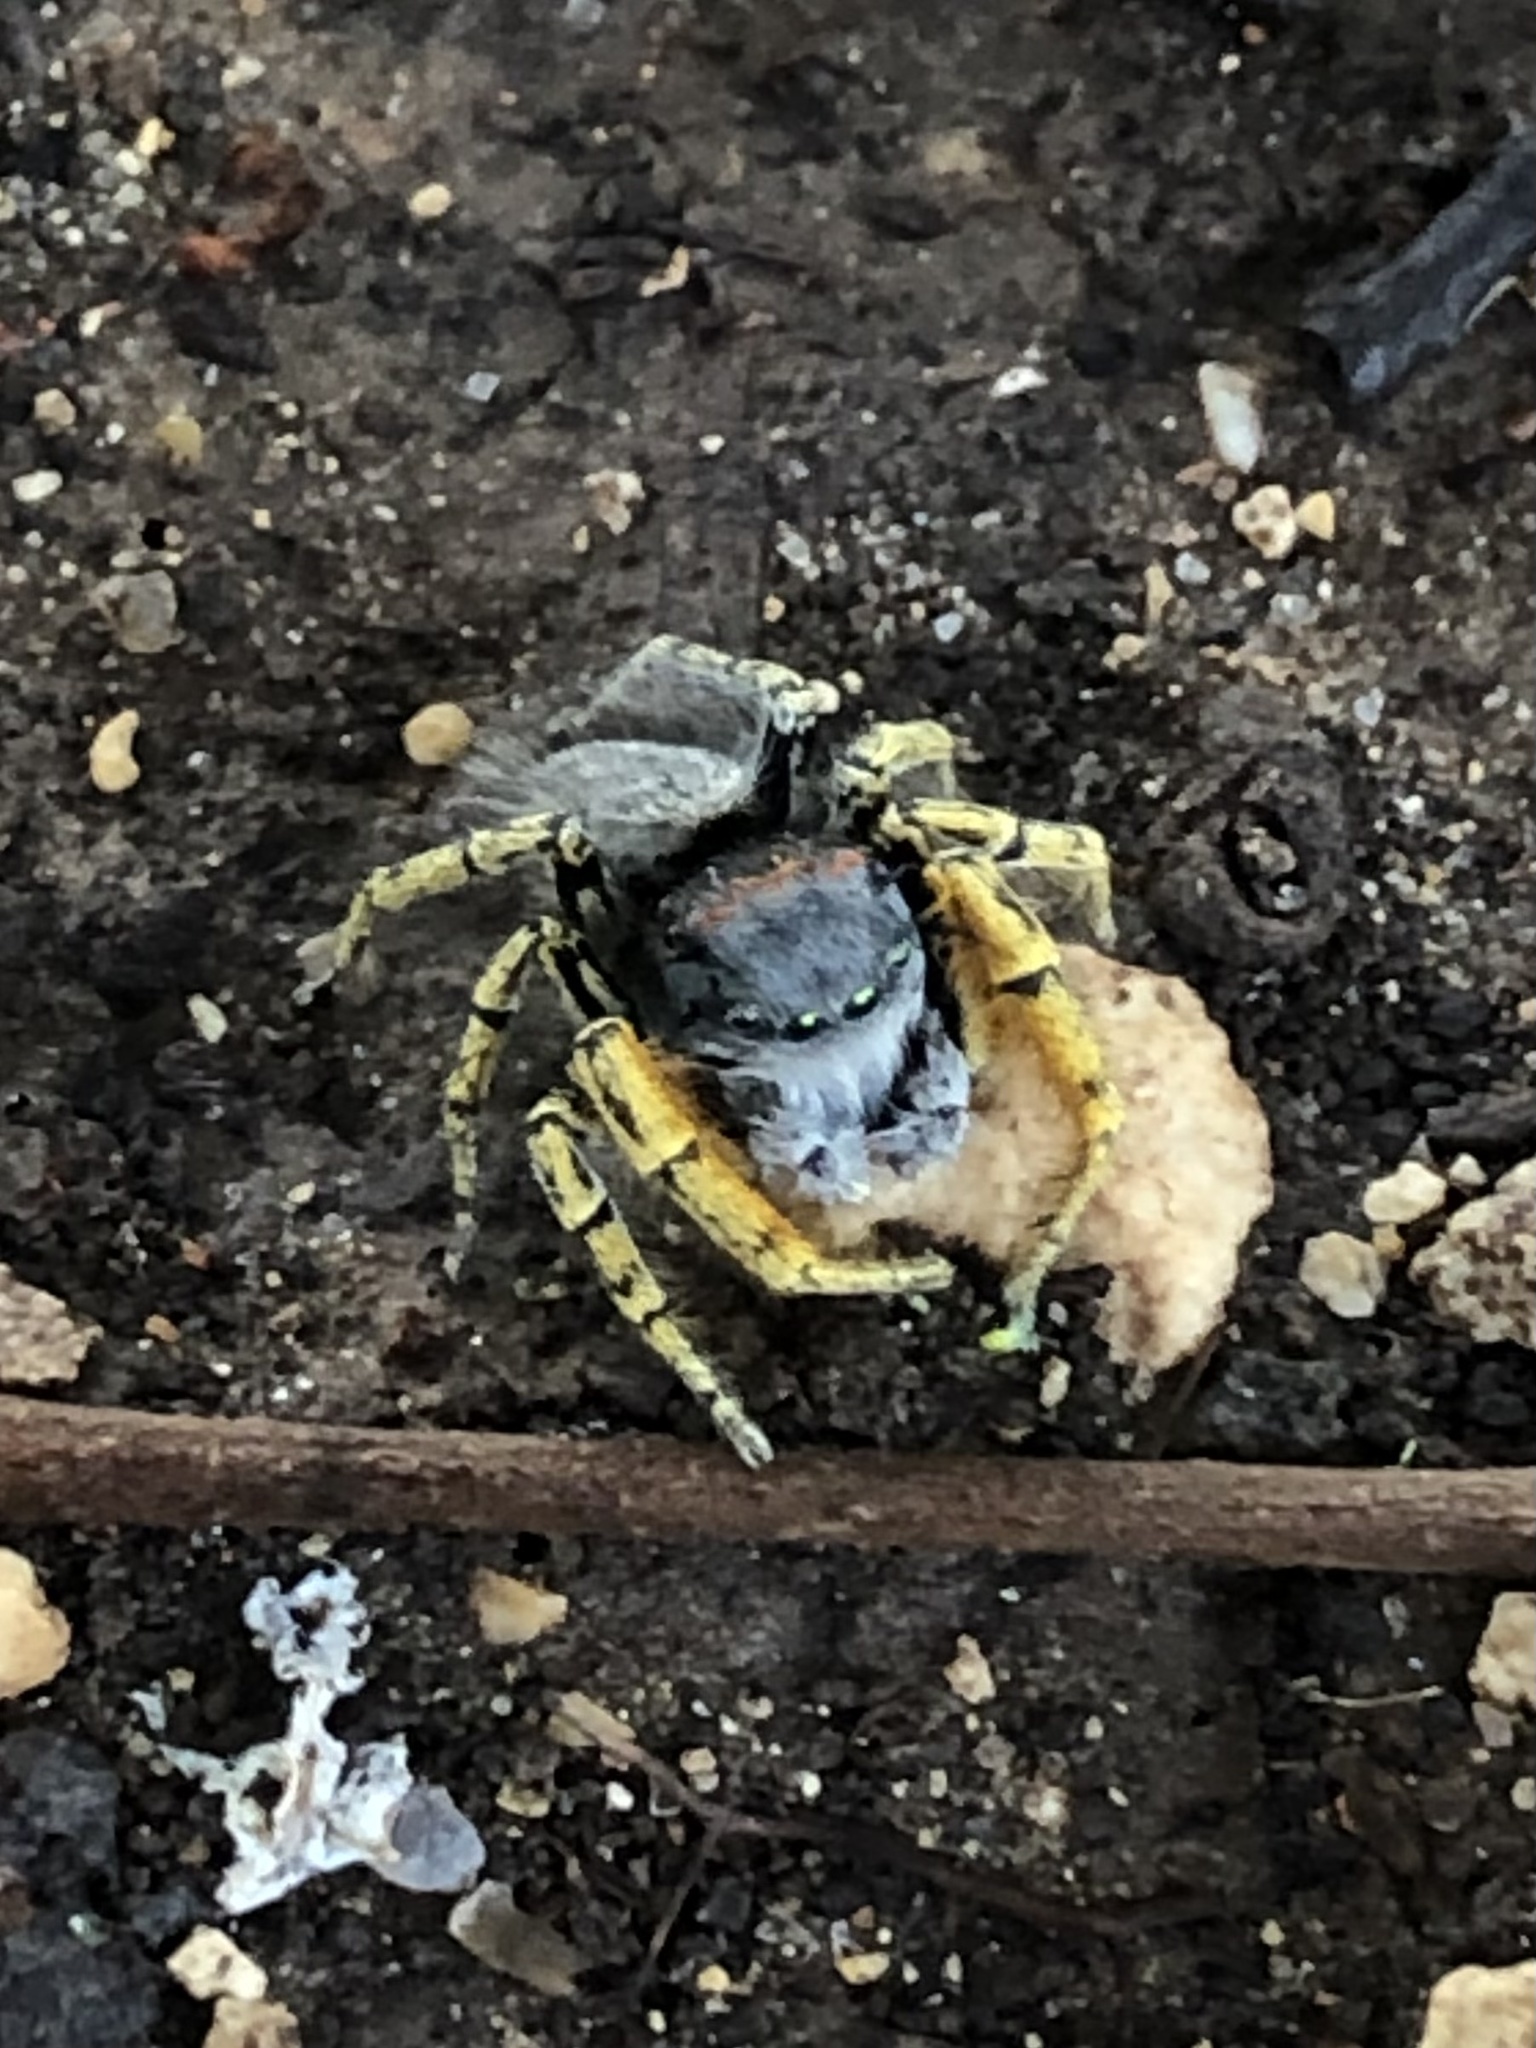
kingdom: Animalia
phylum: Arthropoda
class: Arachnida
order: Araneae
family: Salticidae
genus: Phidippus
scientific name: Phidippus mystaceus
